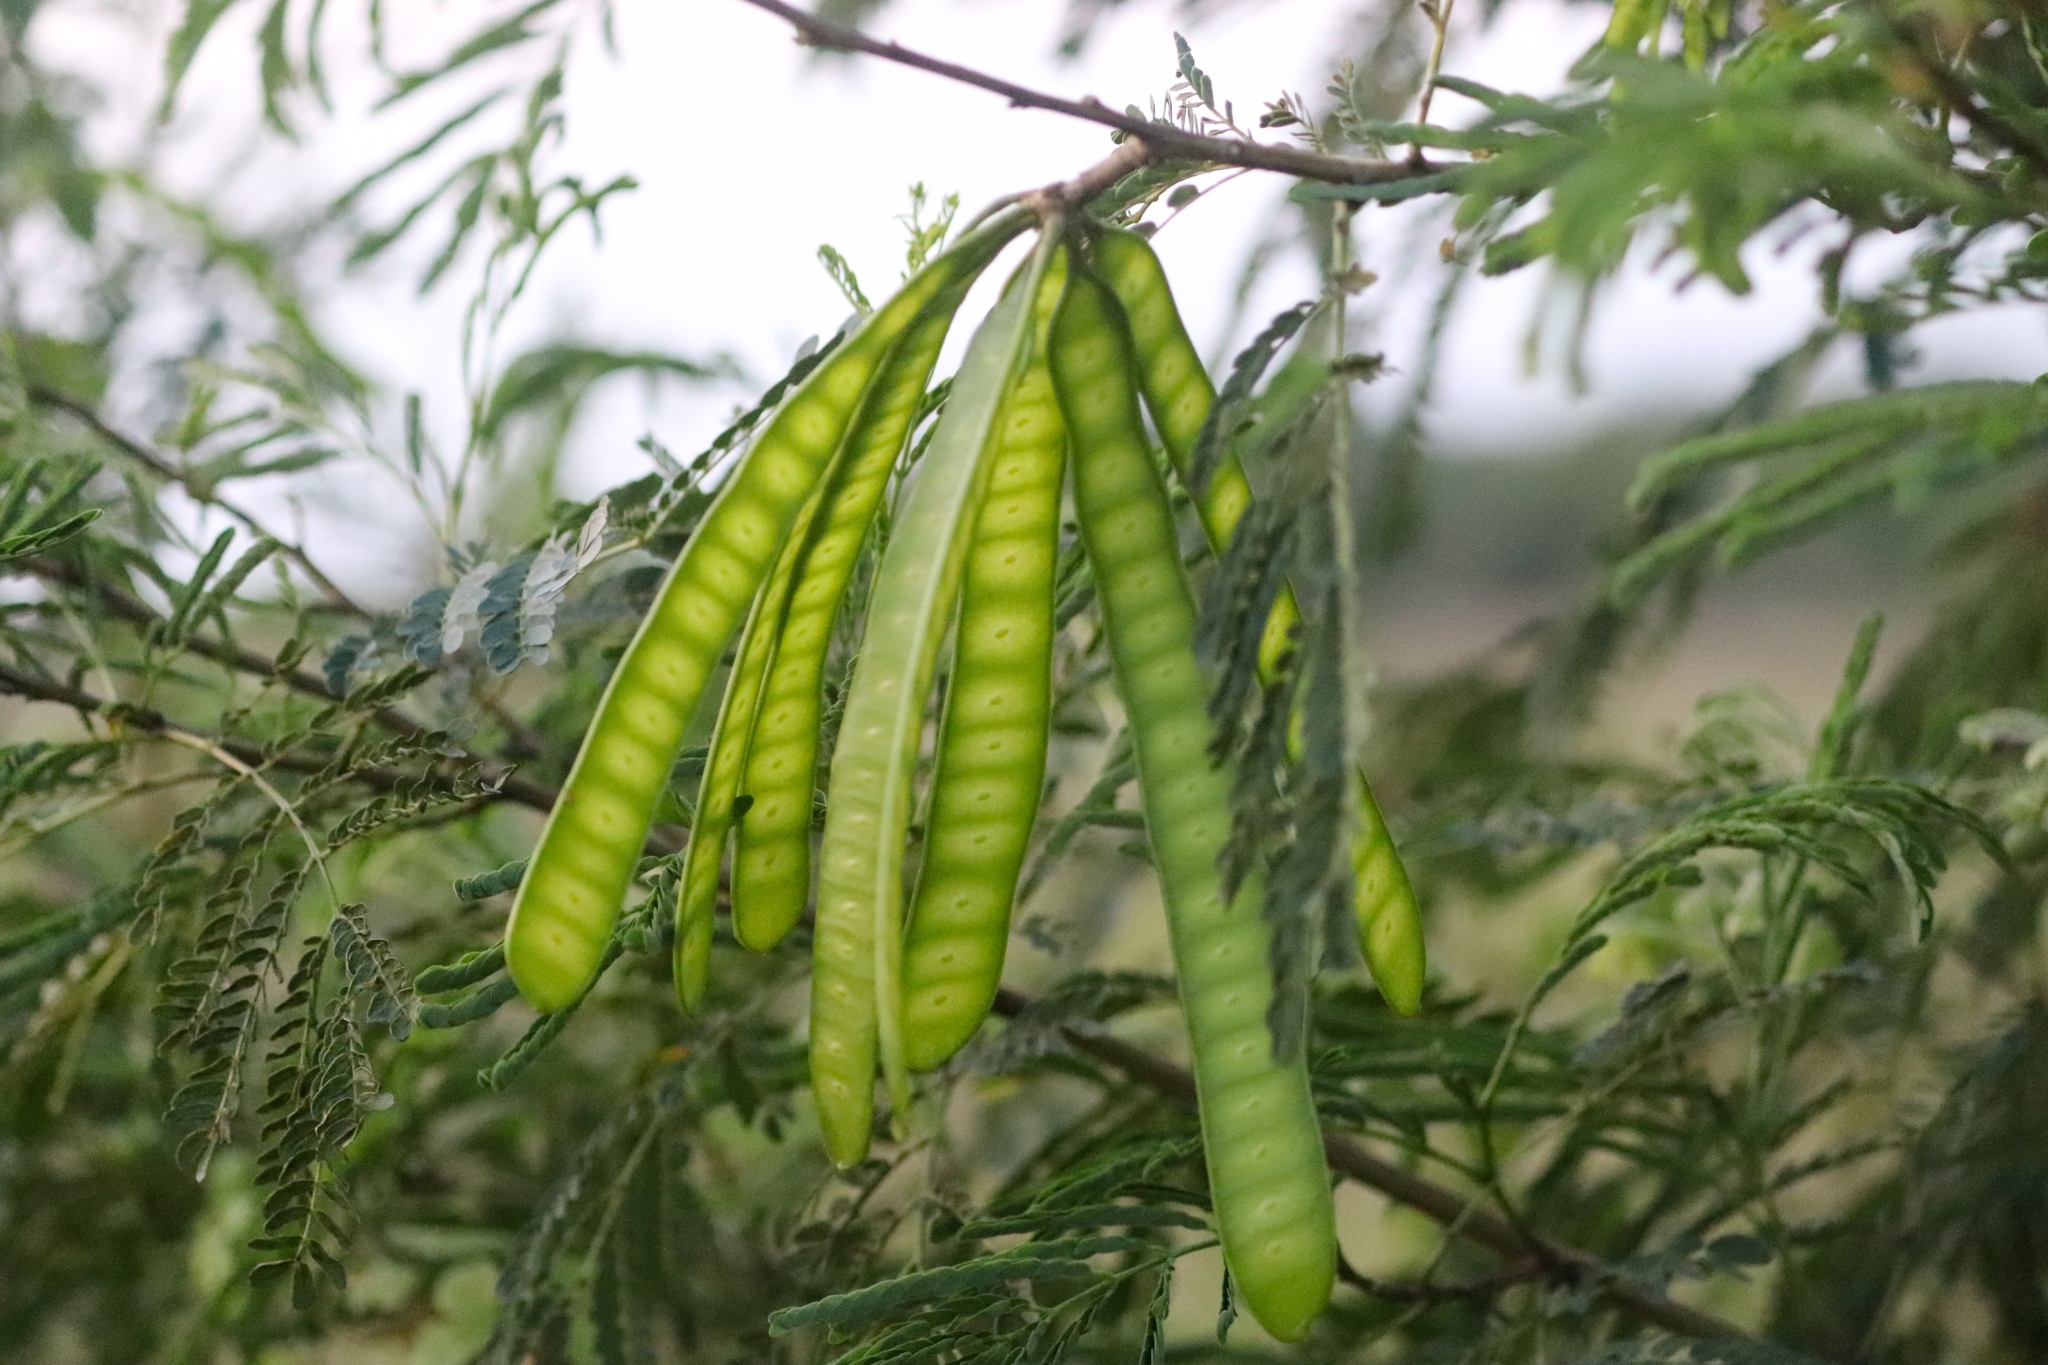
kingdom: Plantae
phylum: Tracheophyta
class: Magnoliopsida
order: Fabales
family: Fabaceae
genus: Leucaena
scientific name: Leucaena leucocephala
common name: White leadtree
